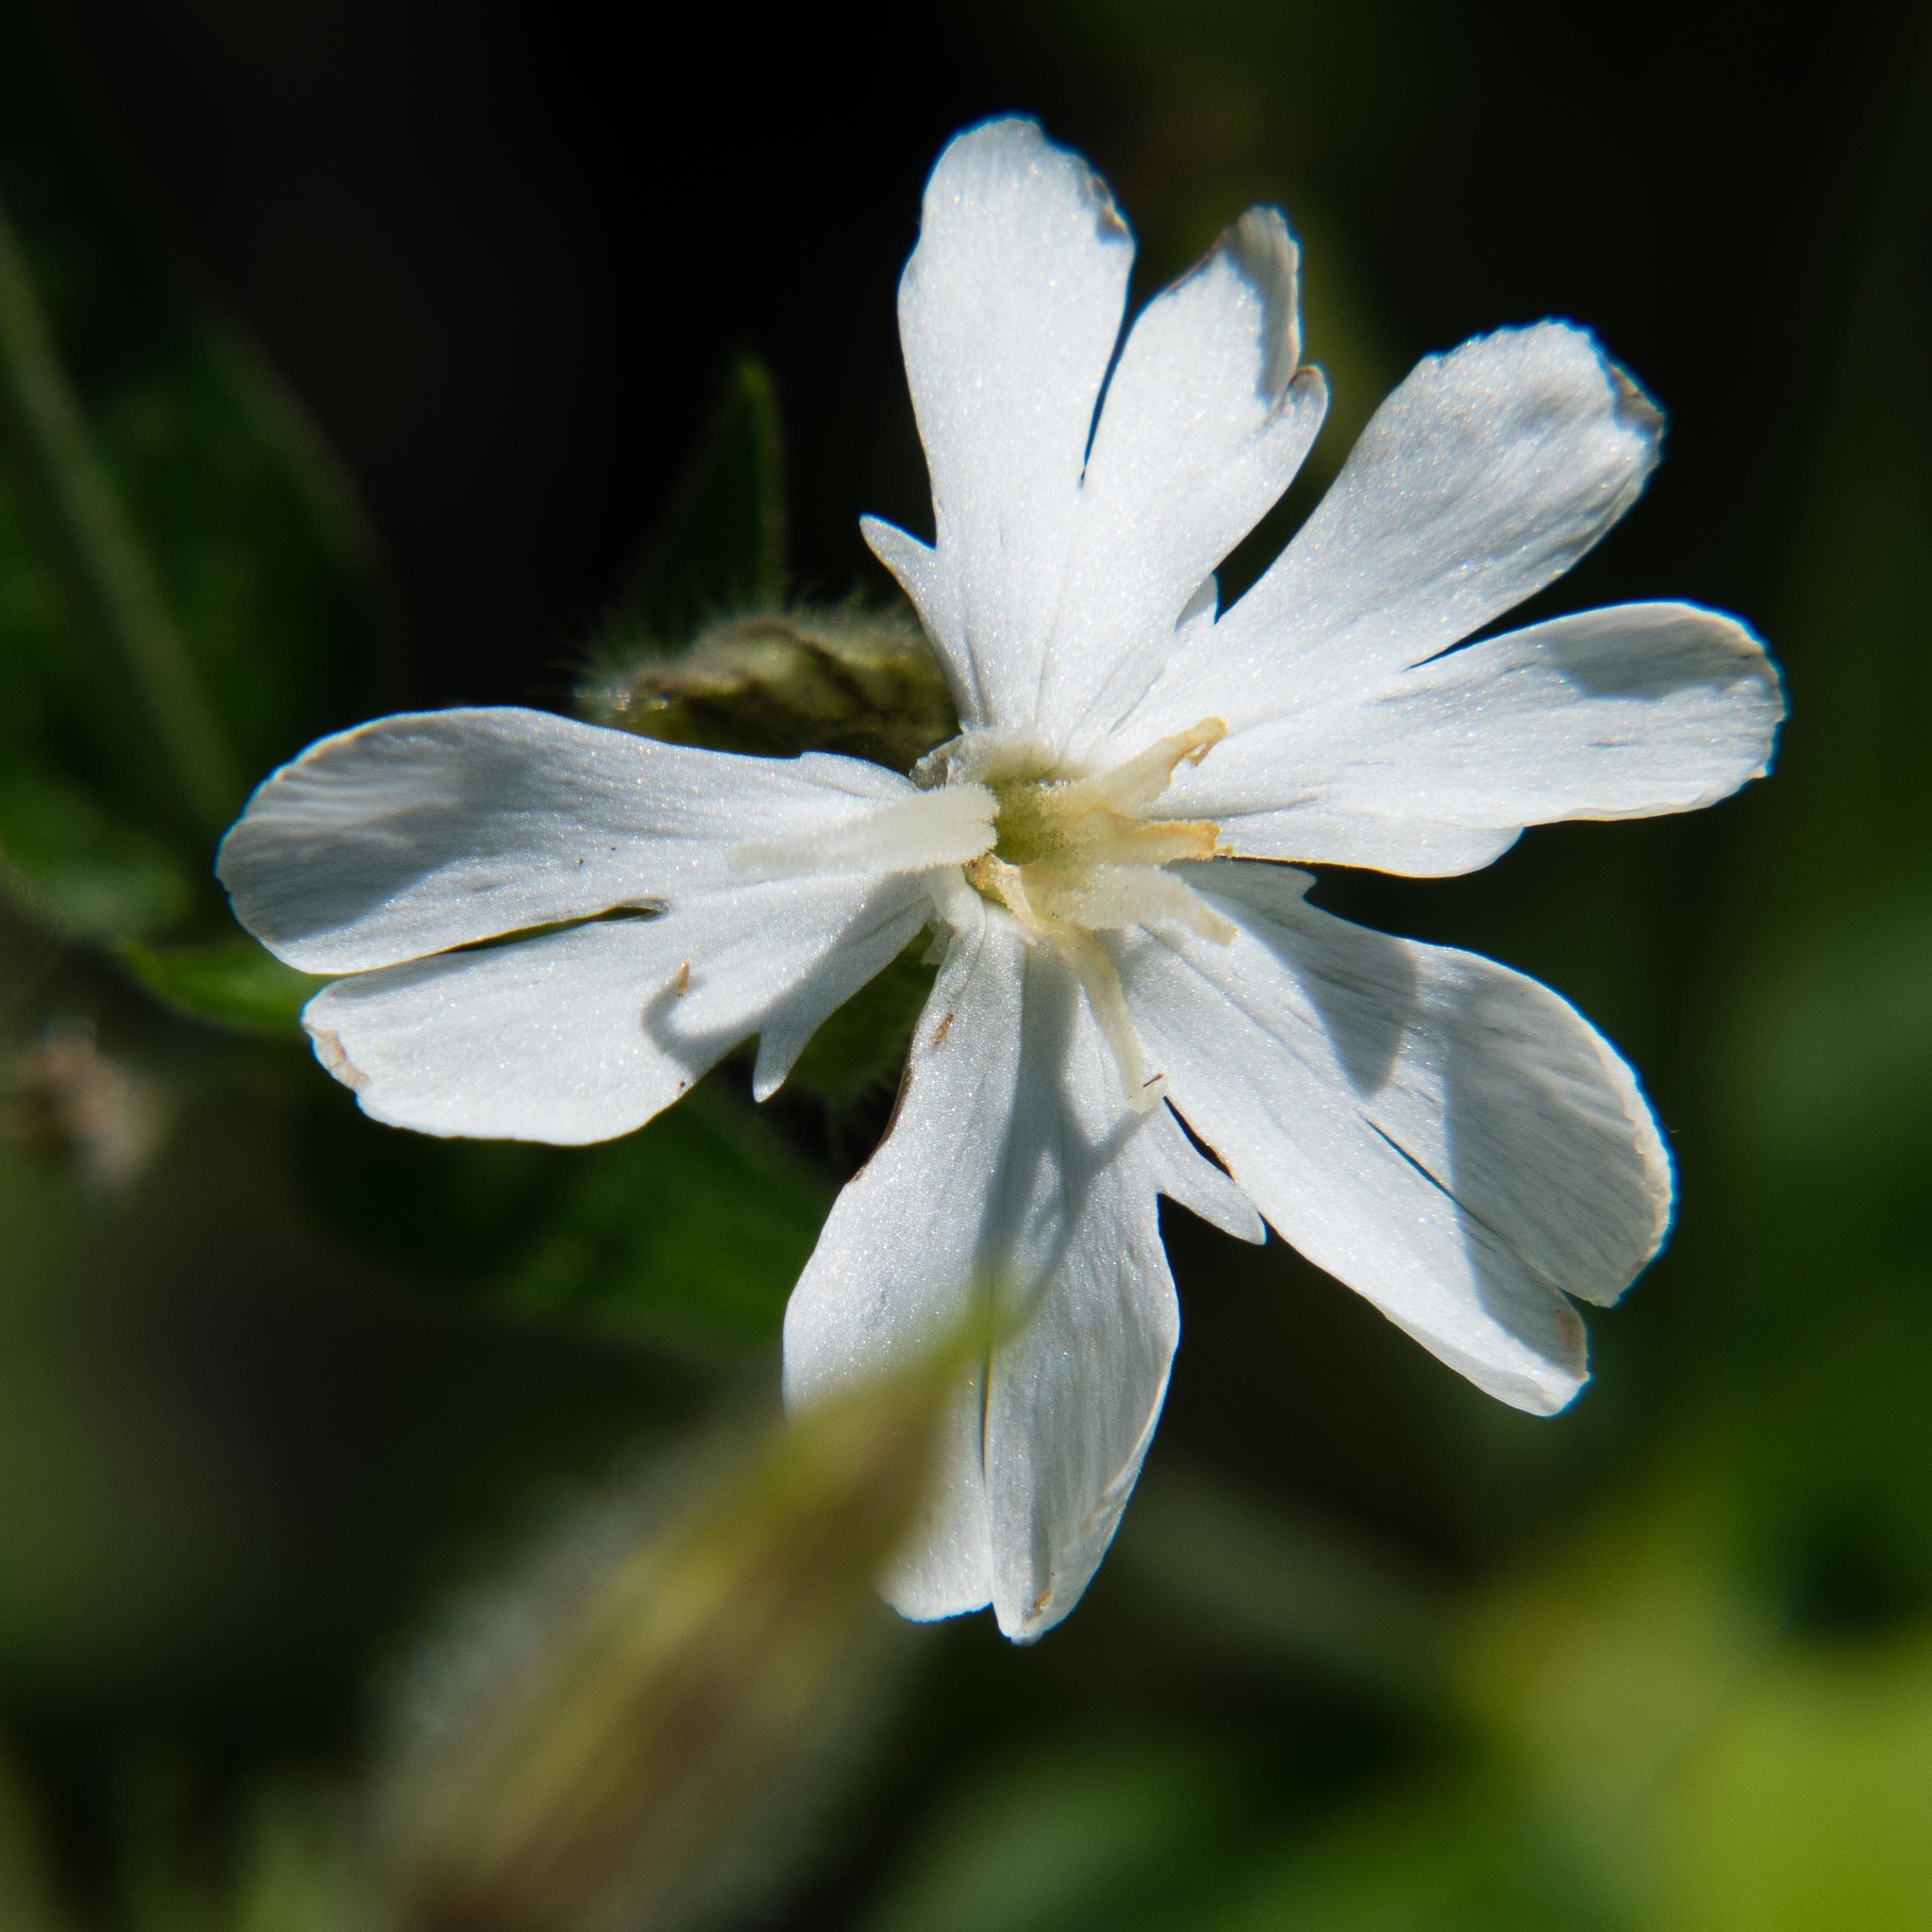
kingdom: Plantae
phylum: Tracheophyta
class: Magnoliopsida
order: Caryophyllales
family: Caryophyllaceae
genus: Silene
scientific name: Silene latifolia
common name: White campion
